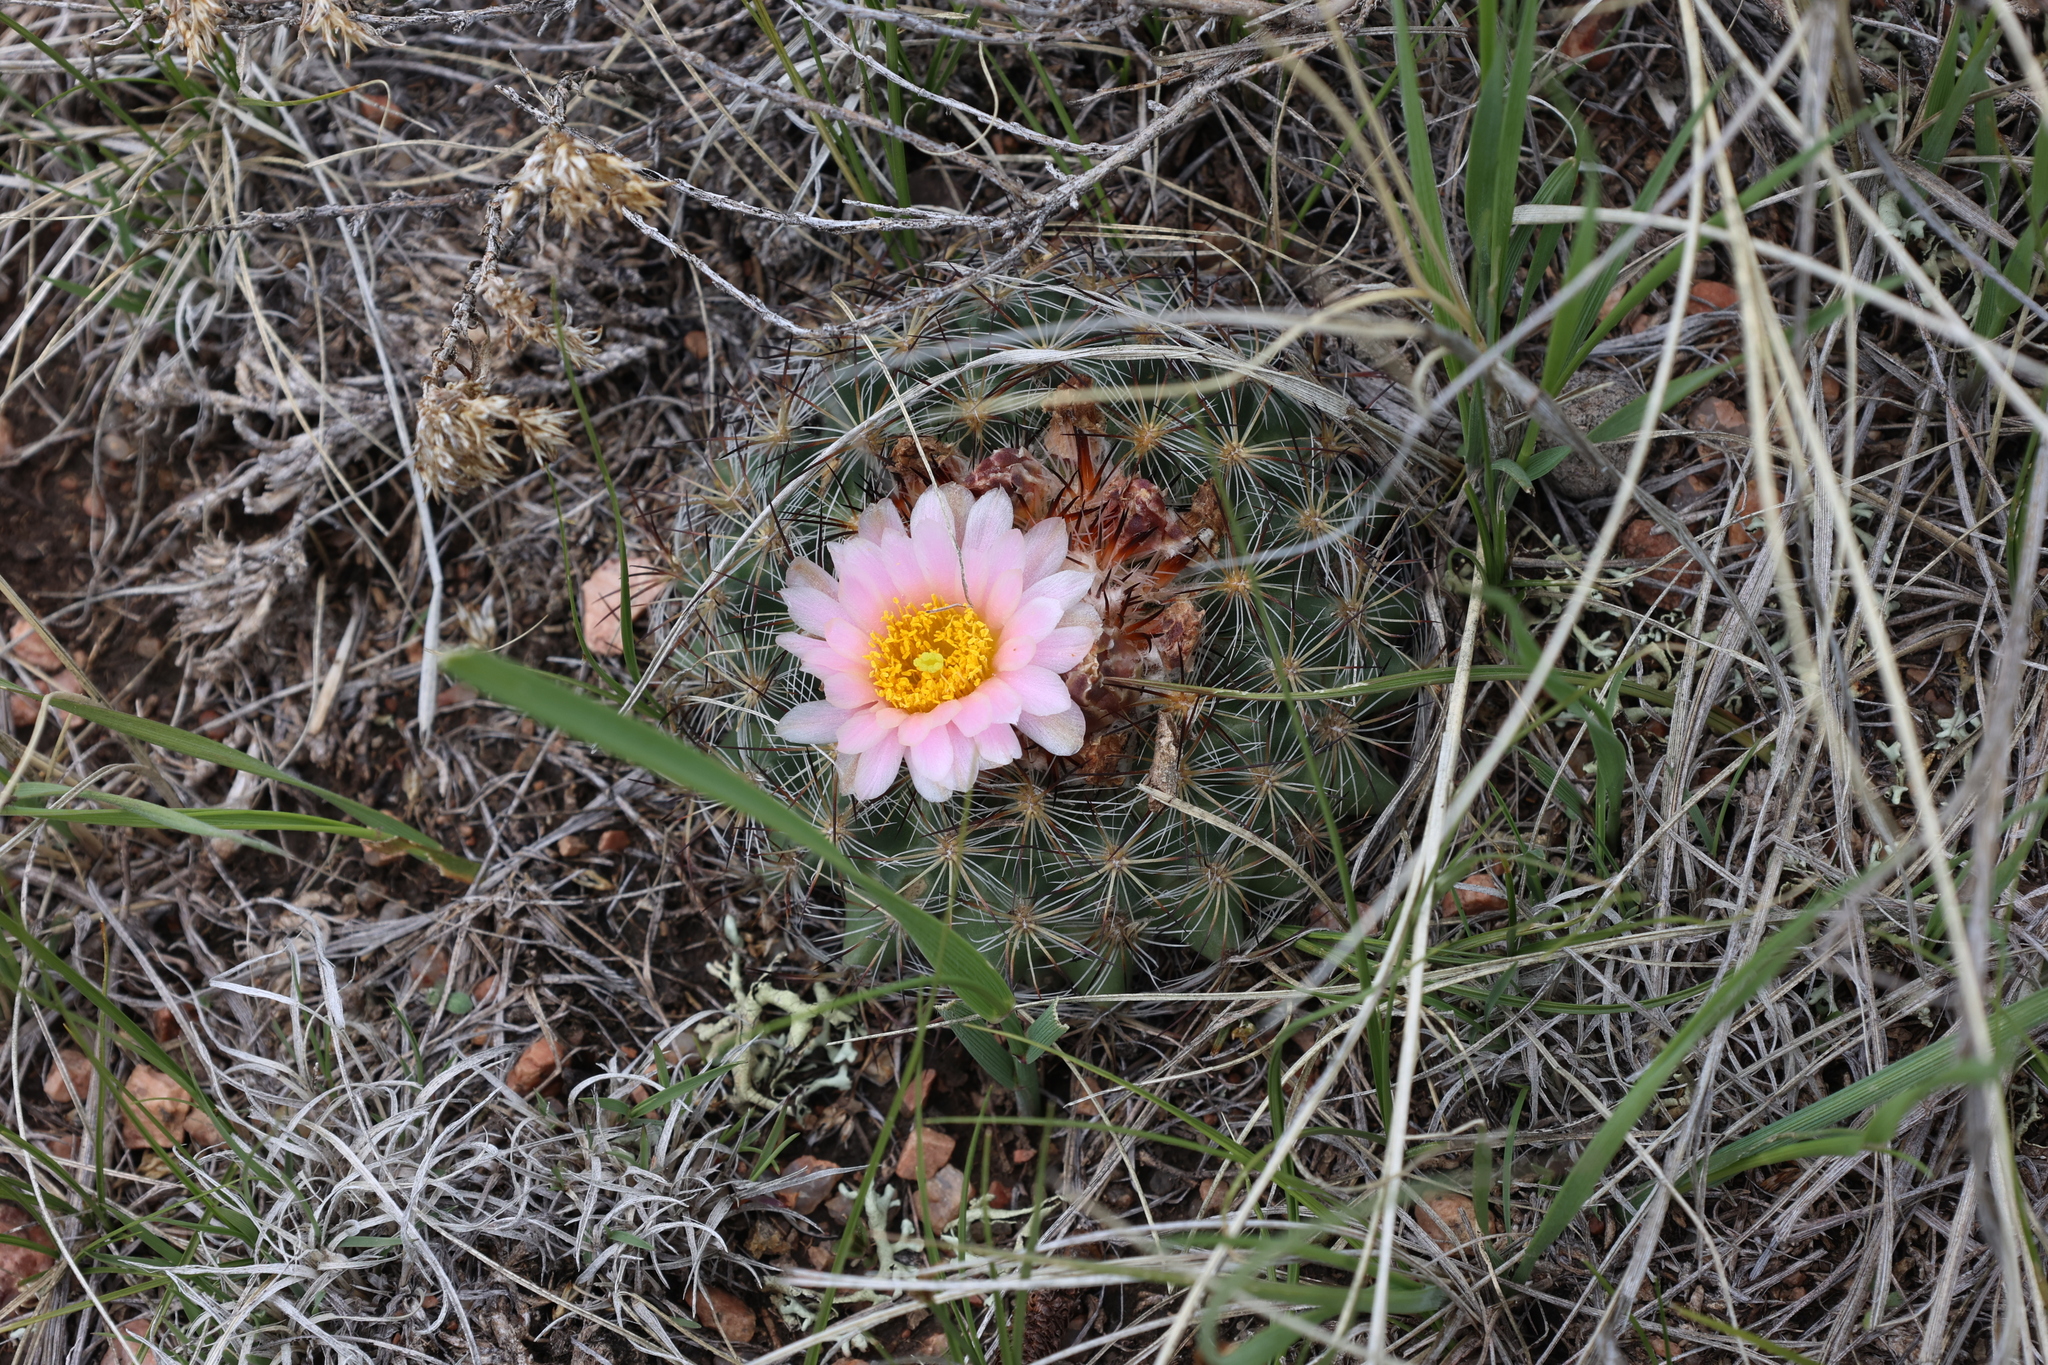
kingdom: Plantae
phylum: Tracheophyta
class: Magnoliopsida
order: Caryophyllales
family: Cactaceae
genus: Pediocactus
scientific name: Pediocactus simpsonii
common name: Simpson's hedgehog cactus
